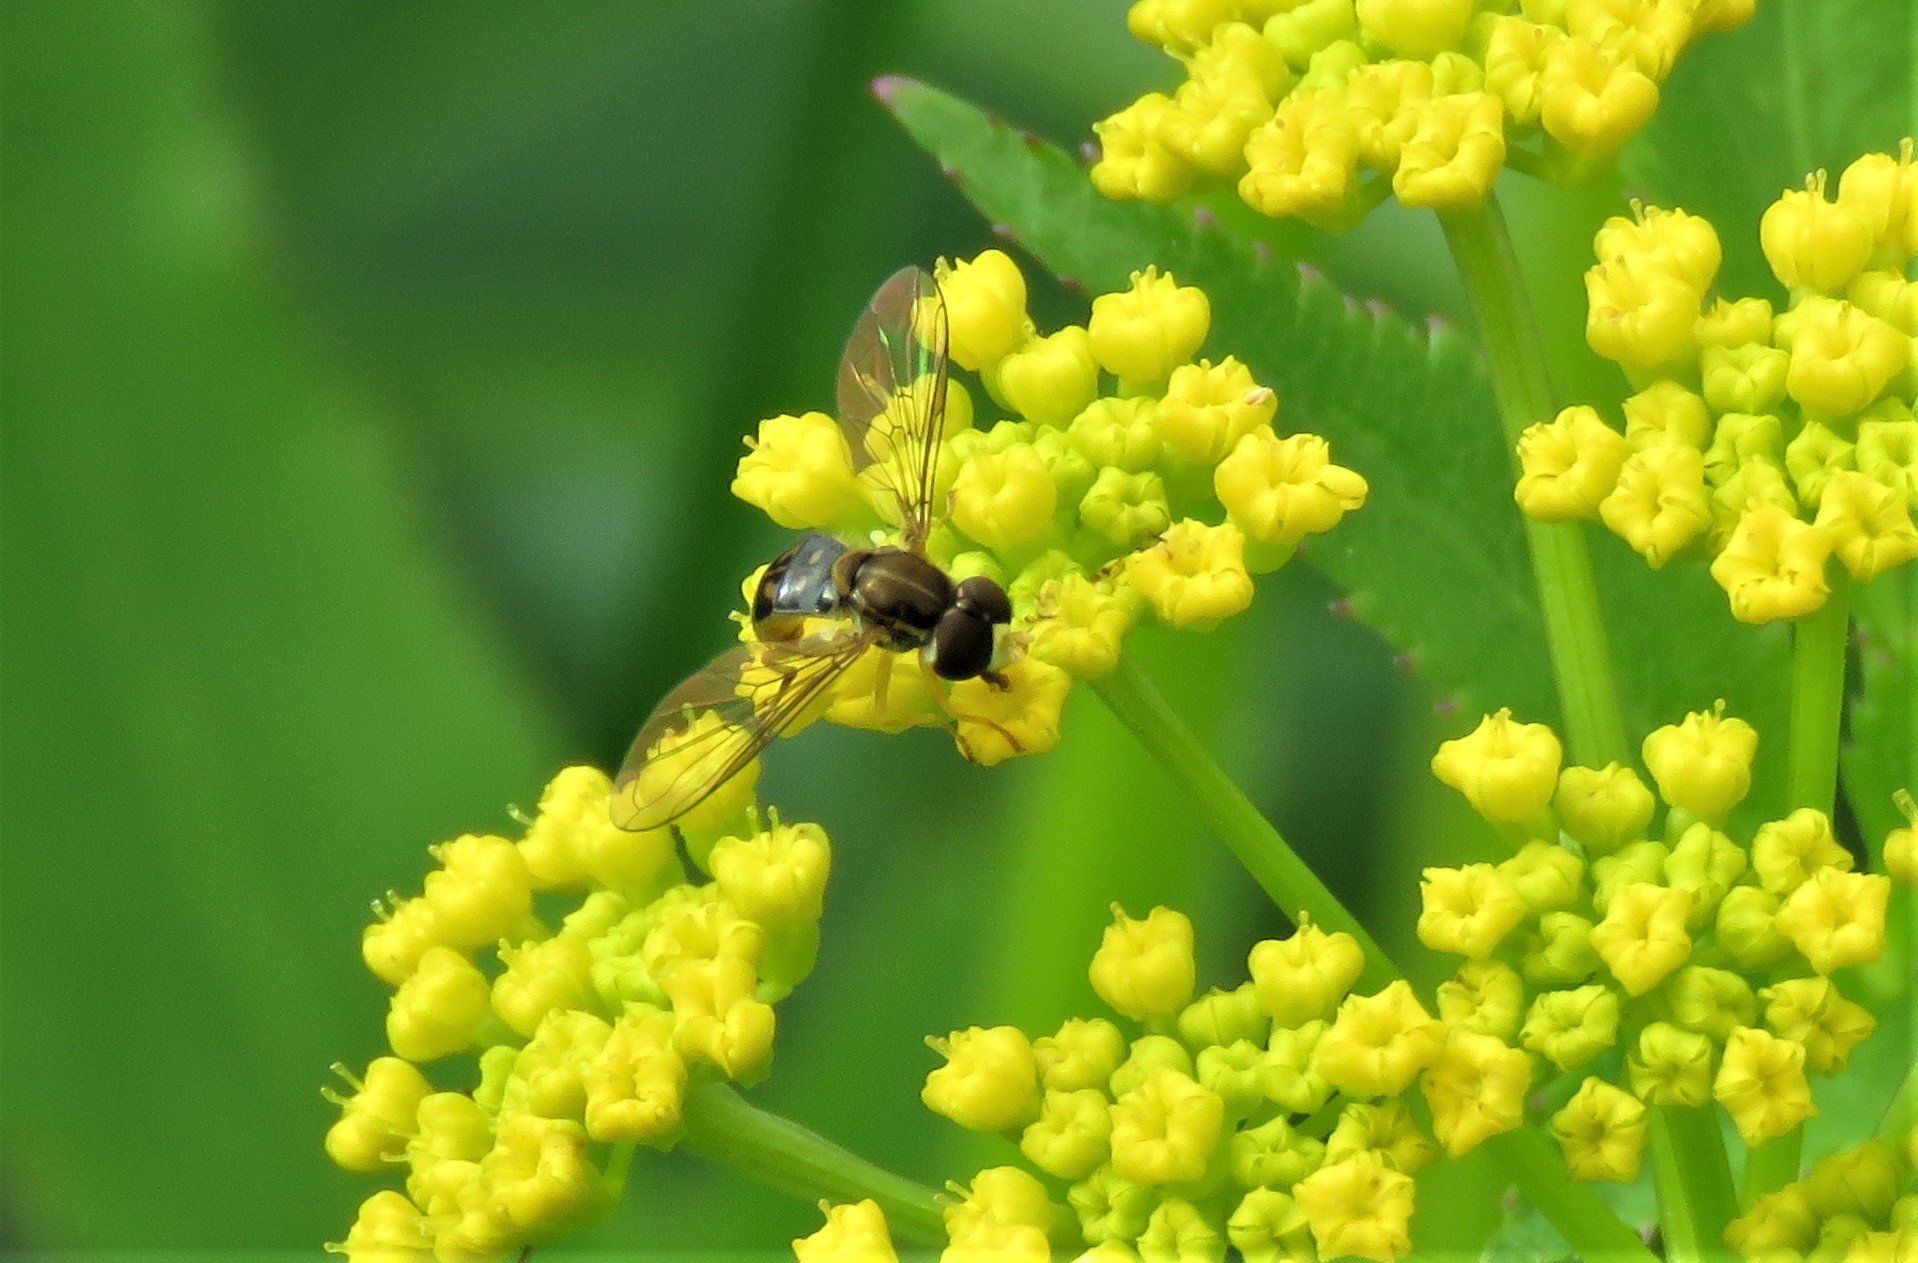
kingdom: Animalia
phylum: Arthropoda
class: Insecta
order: Diptera
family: Syrphidae
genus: Toxomerus
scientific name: Toxomerus marginatus
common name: Syrphid fly
